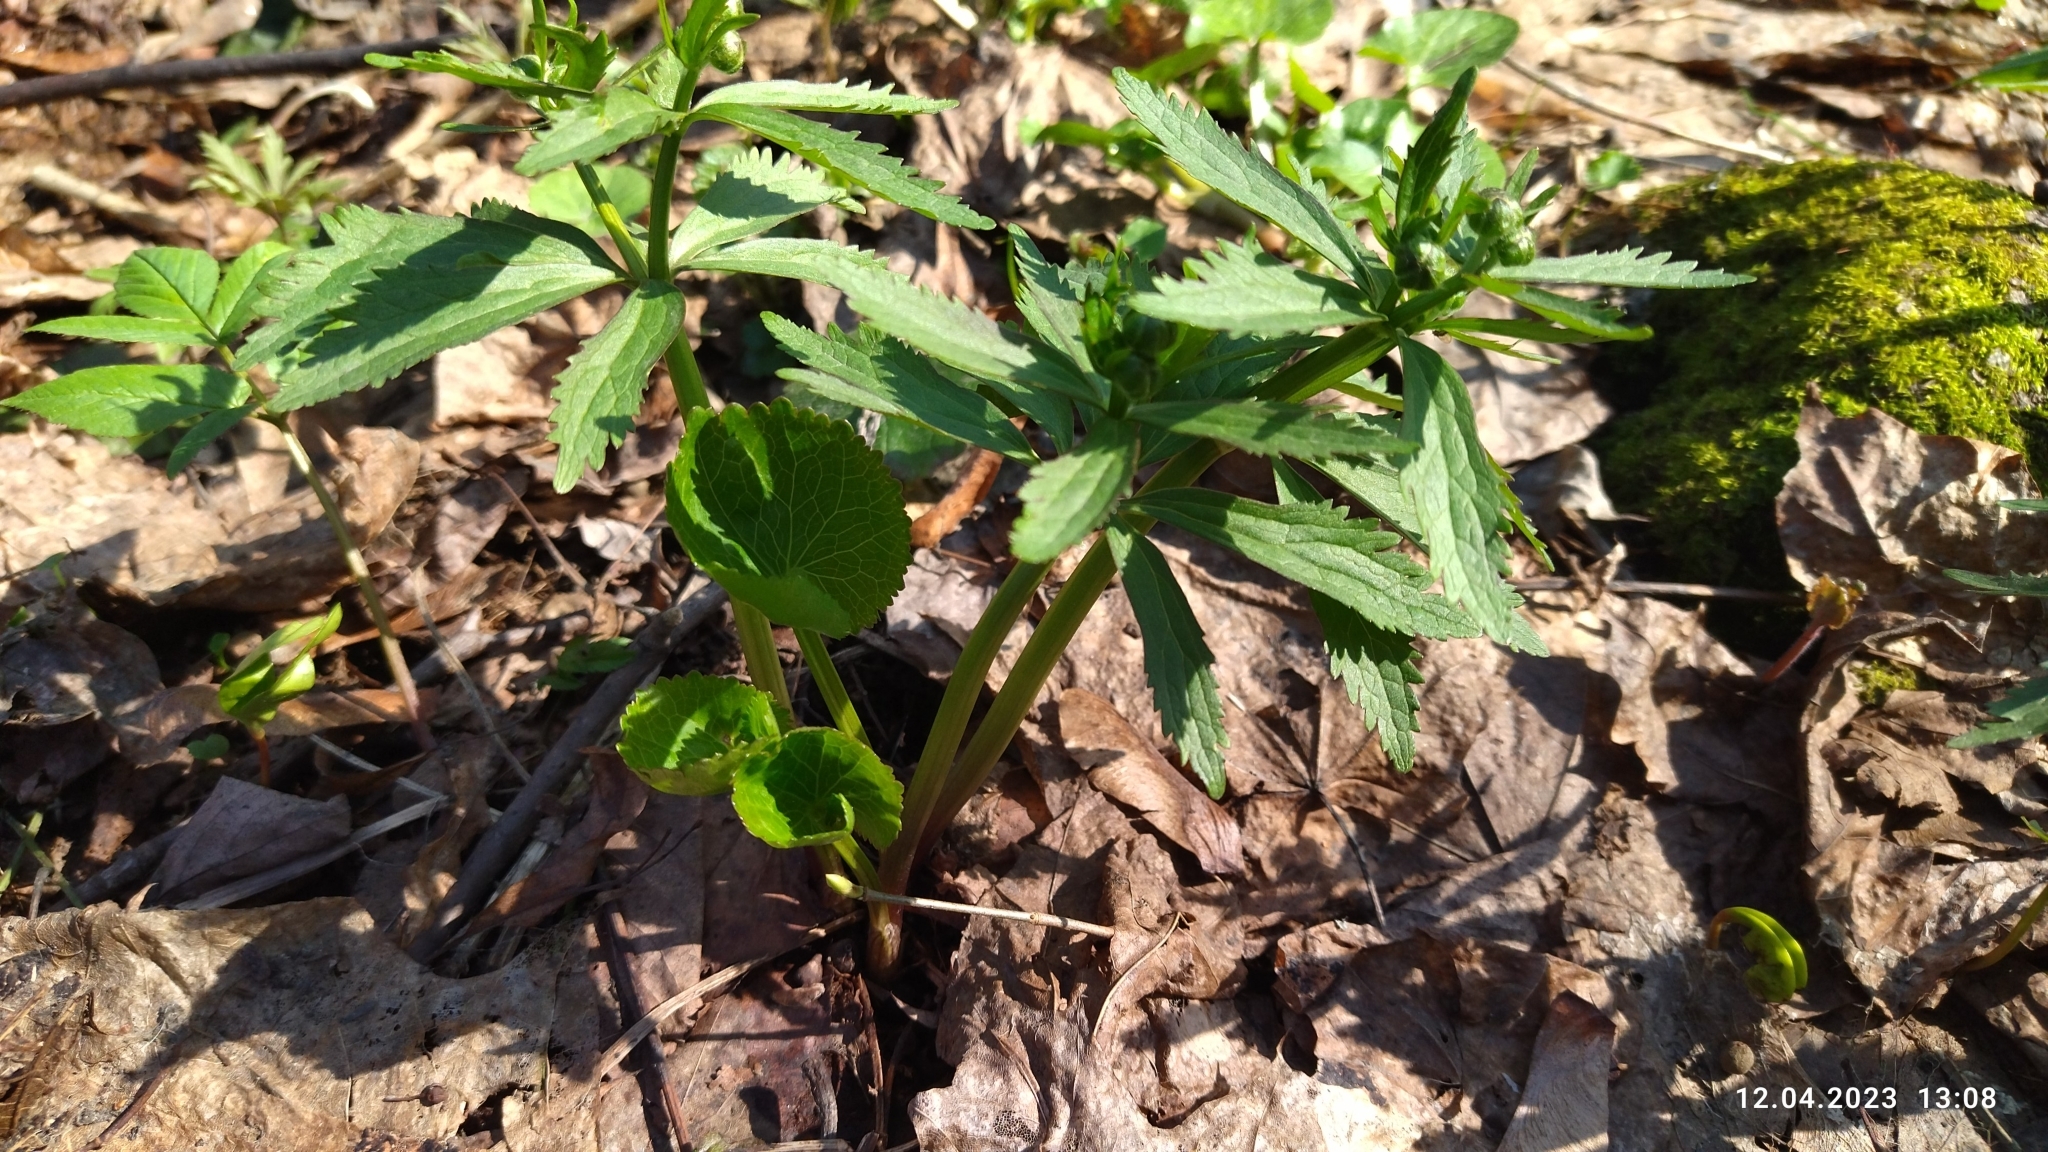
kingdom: Plantae
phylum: Tracheophyta
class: Magnoliopsida
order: Ranunculales
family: Ranunculaceae
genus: Ranunculus
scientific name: Ranunculus cassubicus
